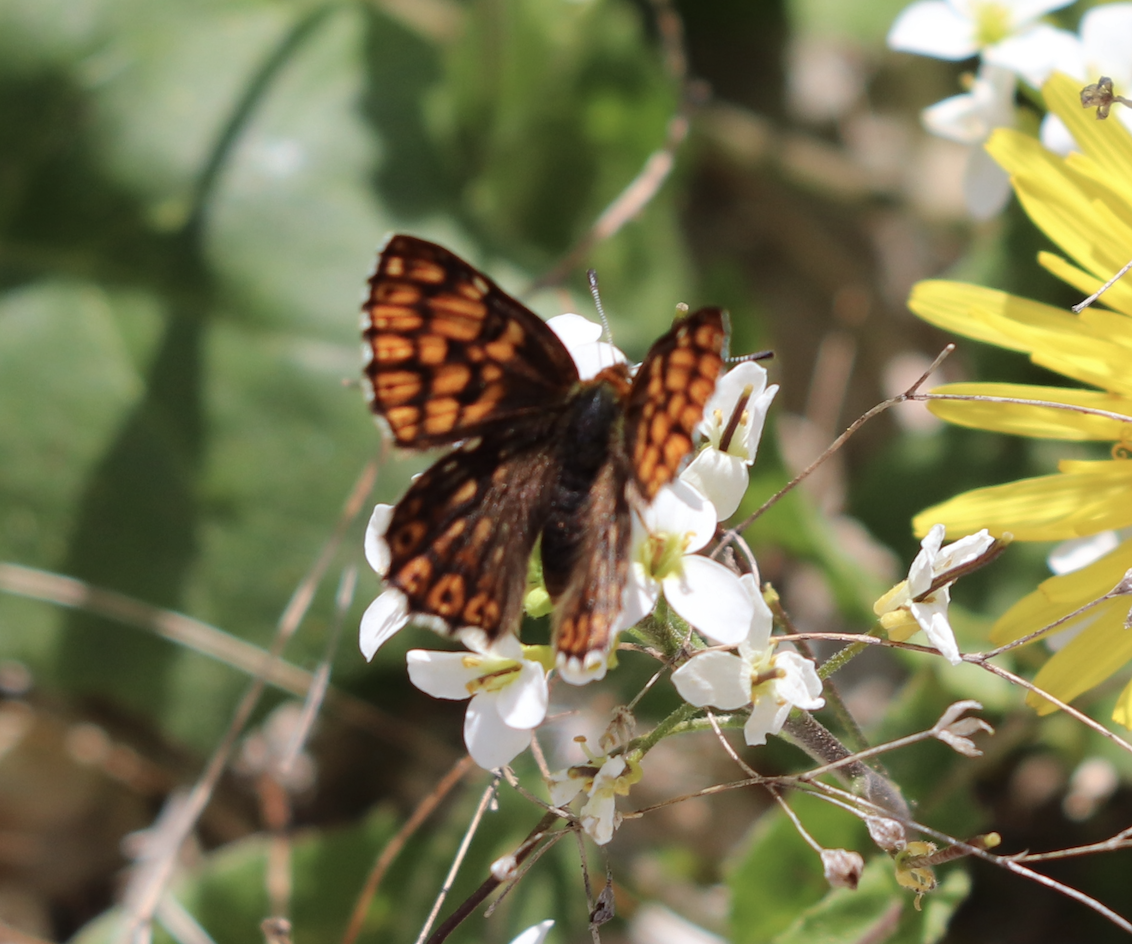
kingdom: Animalia
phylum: Arthropoda
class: Insecta
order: Lepidoptera
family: Riodinidae
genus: Hamearis
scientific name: Hamearis lucina
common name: Duke of burgundy fritillary
